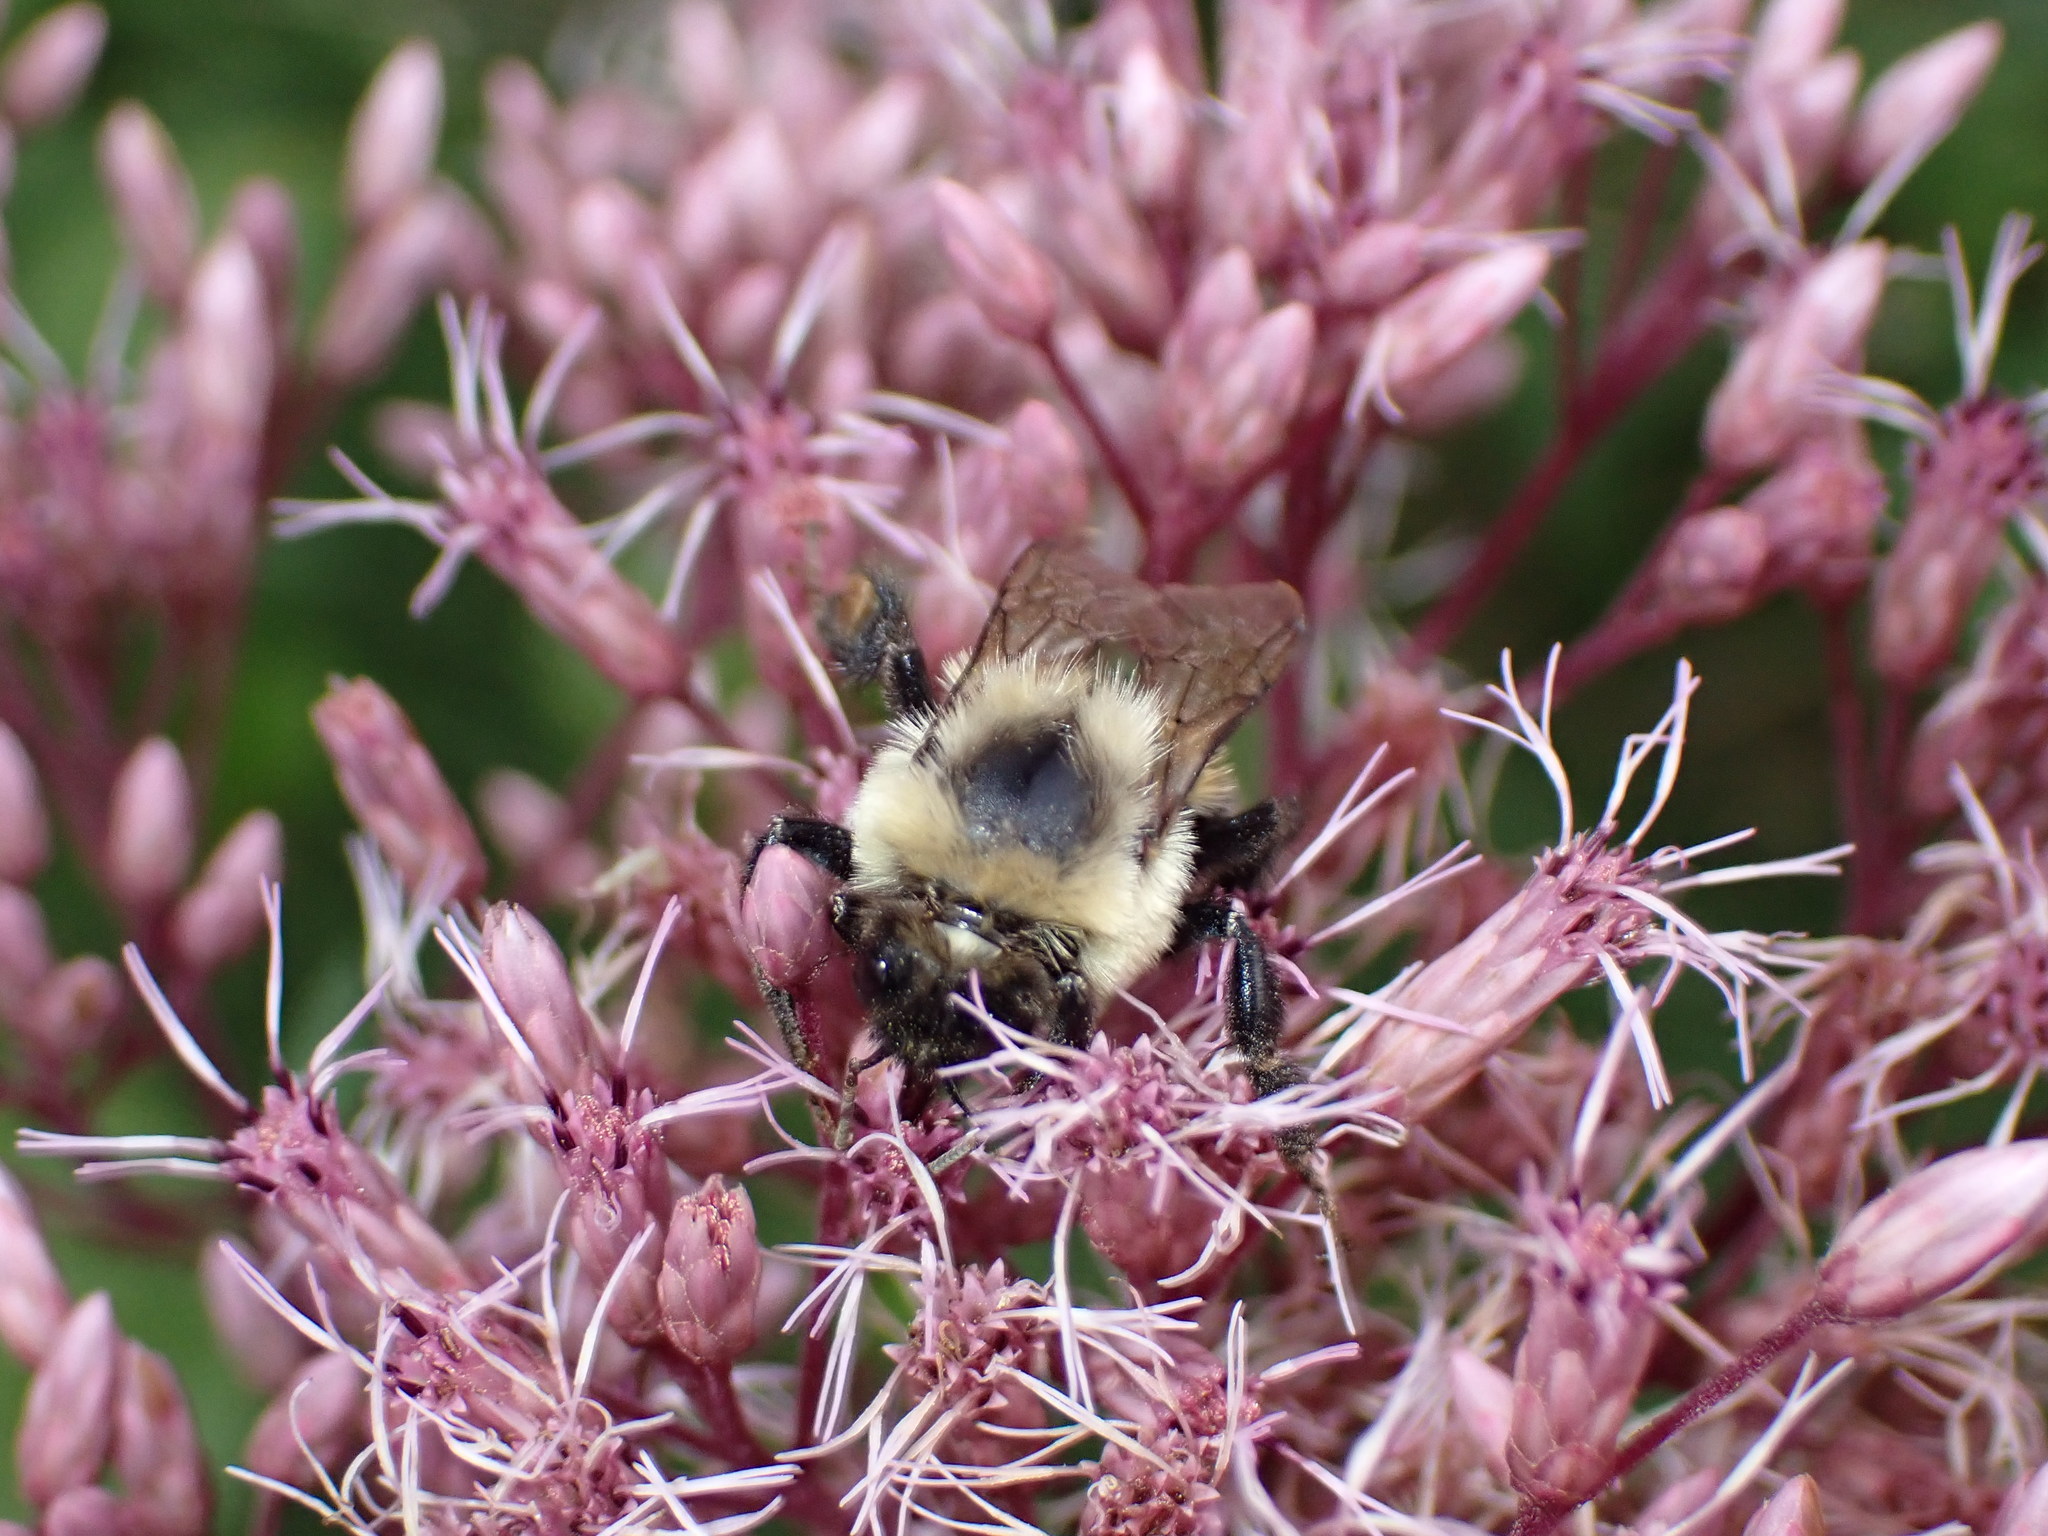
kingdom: Animalia
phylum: Arthropoda
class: Insecta
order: Hymenoptera
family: Apidae
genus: Bombus
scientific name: Bombus impatiens
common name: Common eastern bumble bee
